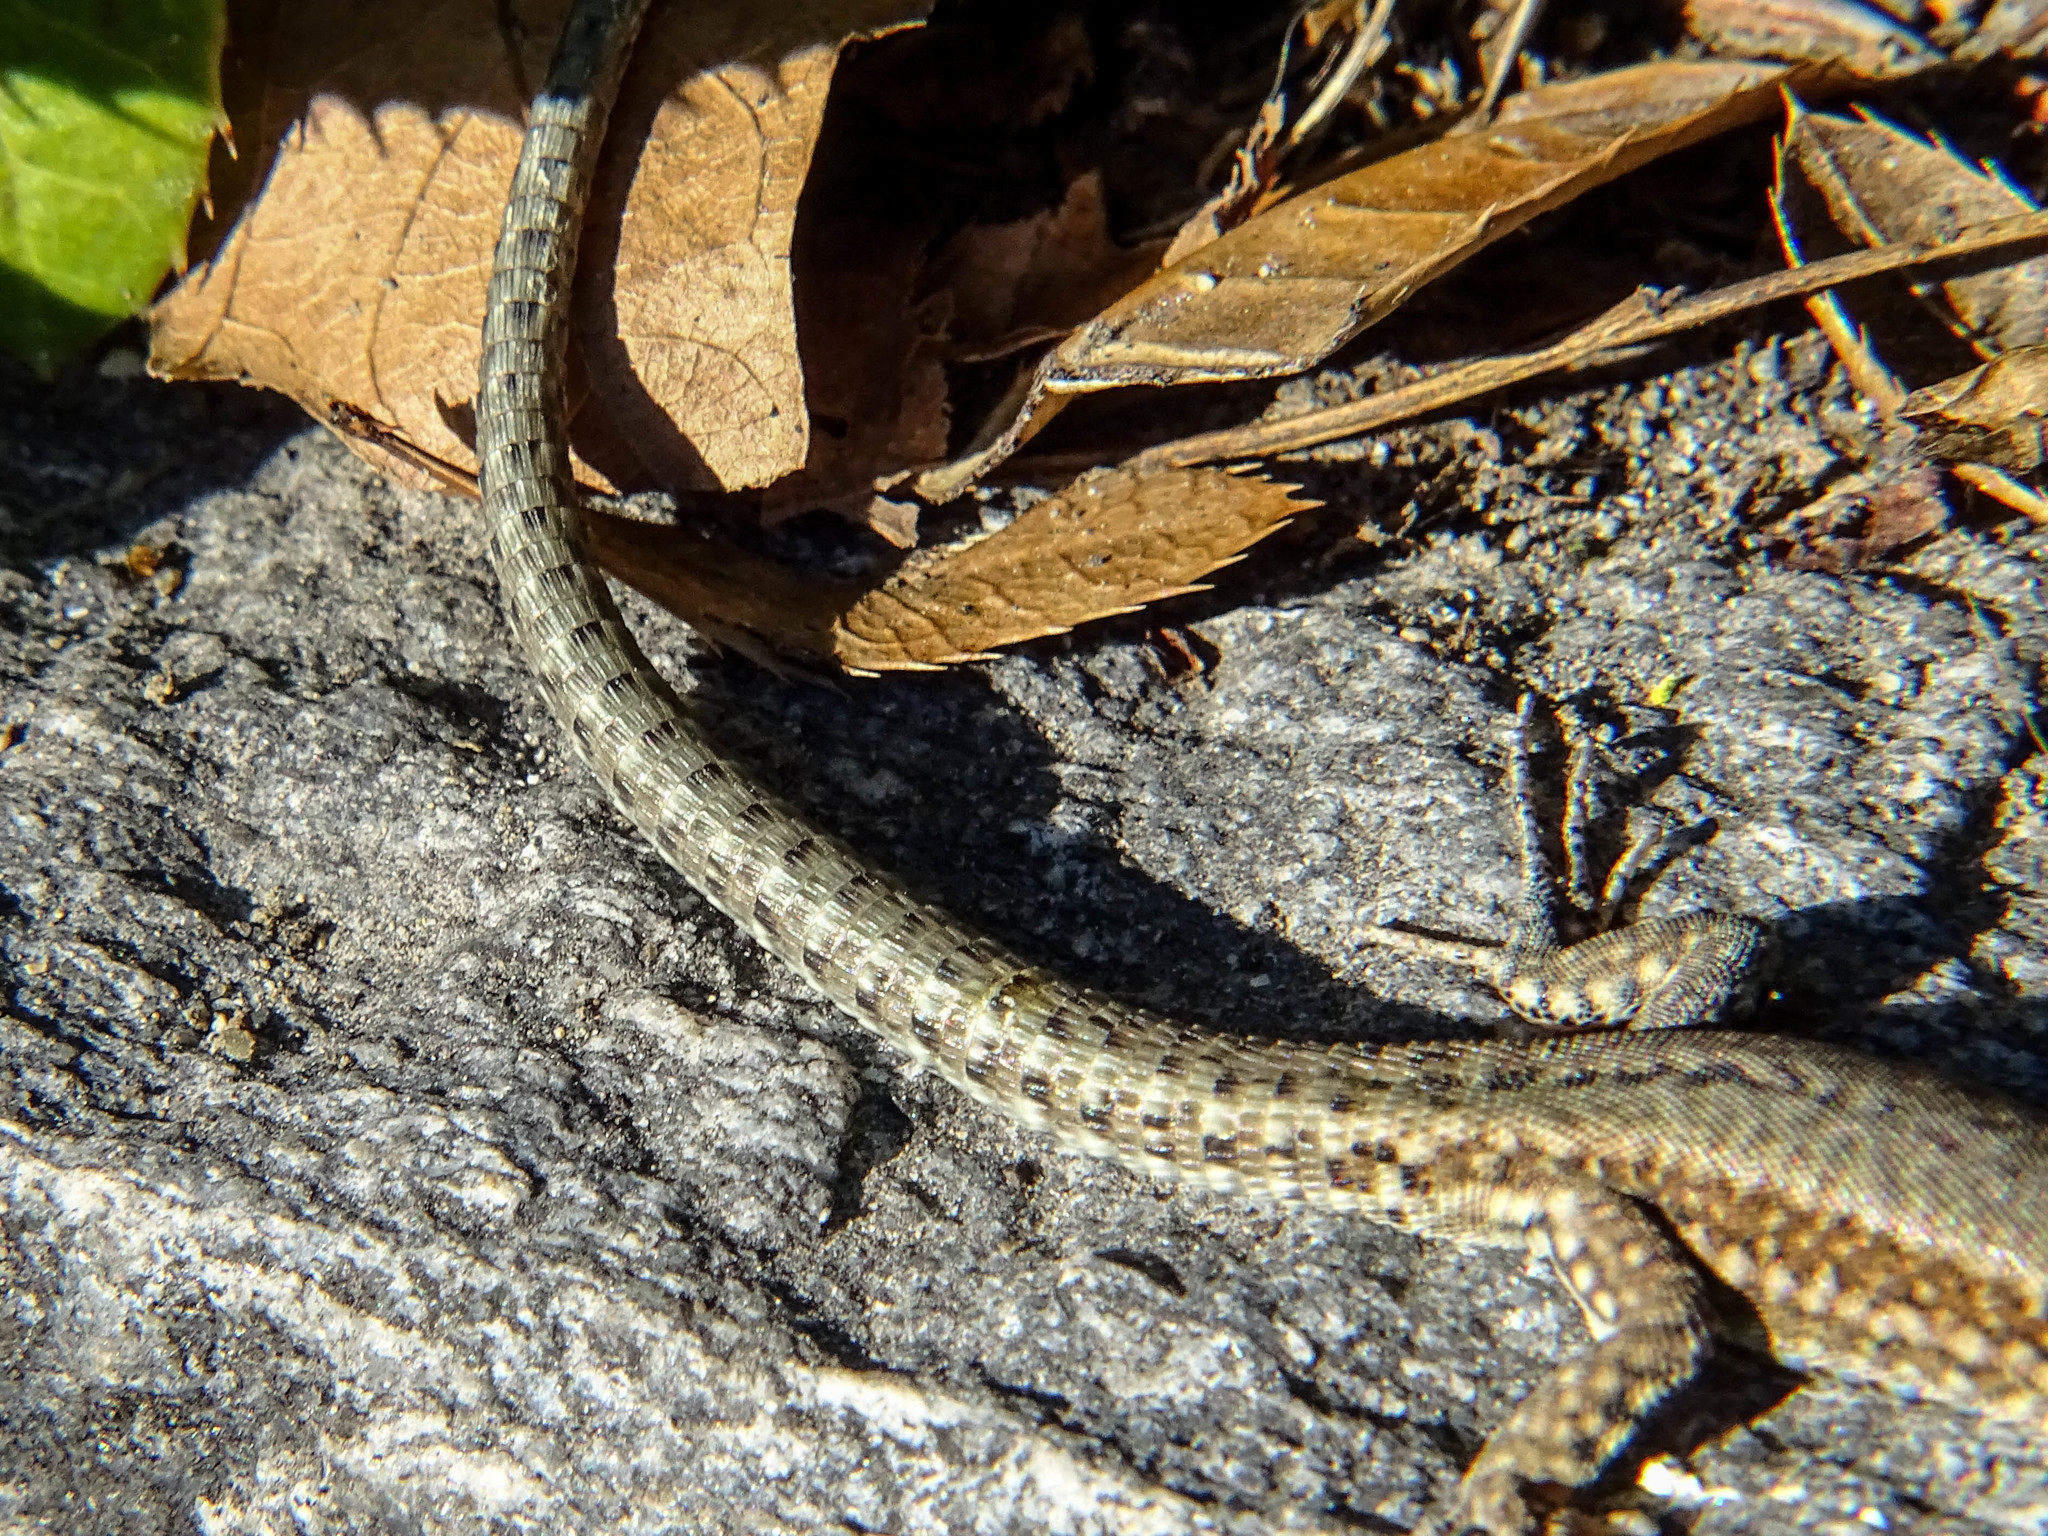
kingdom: Animalia
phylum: Chordata
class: Squamata
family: Lacertidae
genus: Podarcis
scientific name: Podarcis muralis
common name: Common wall lizard
